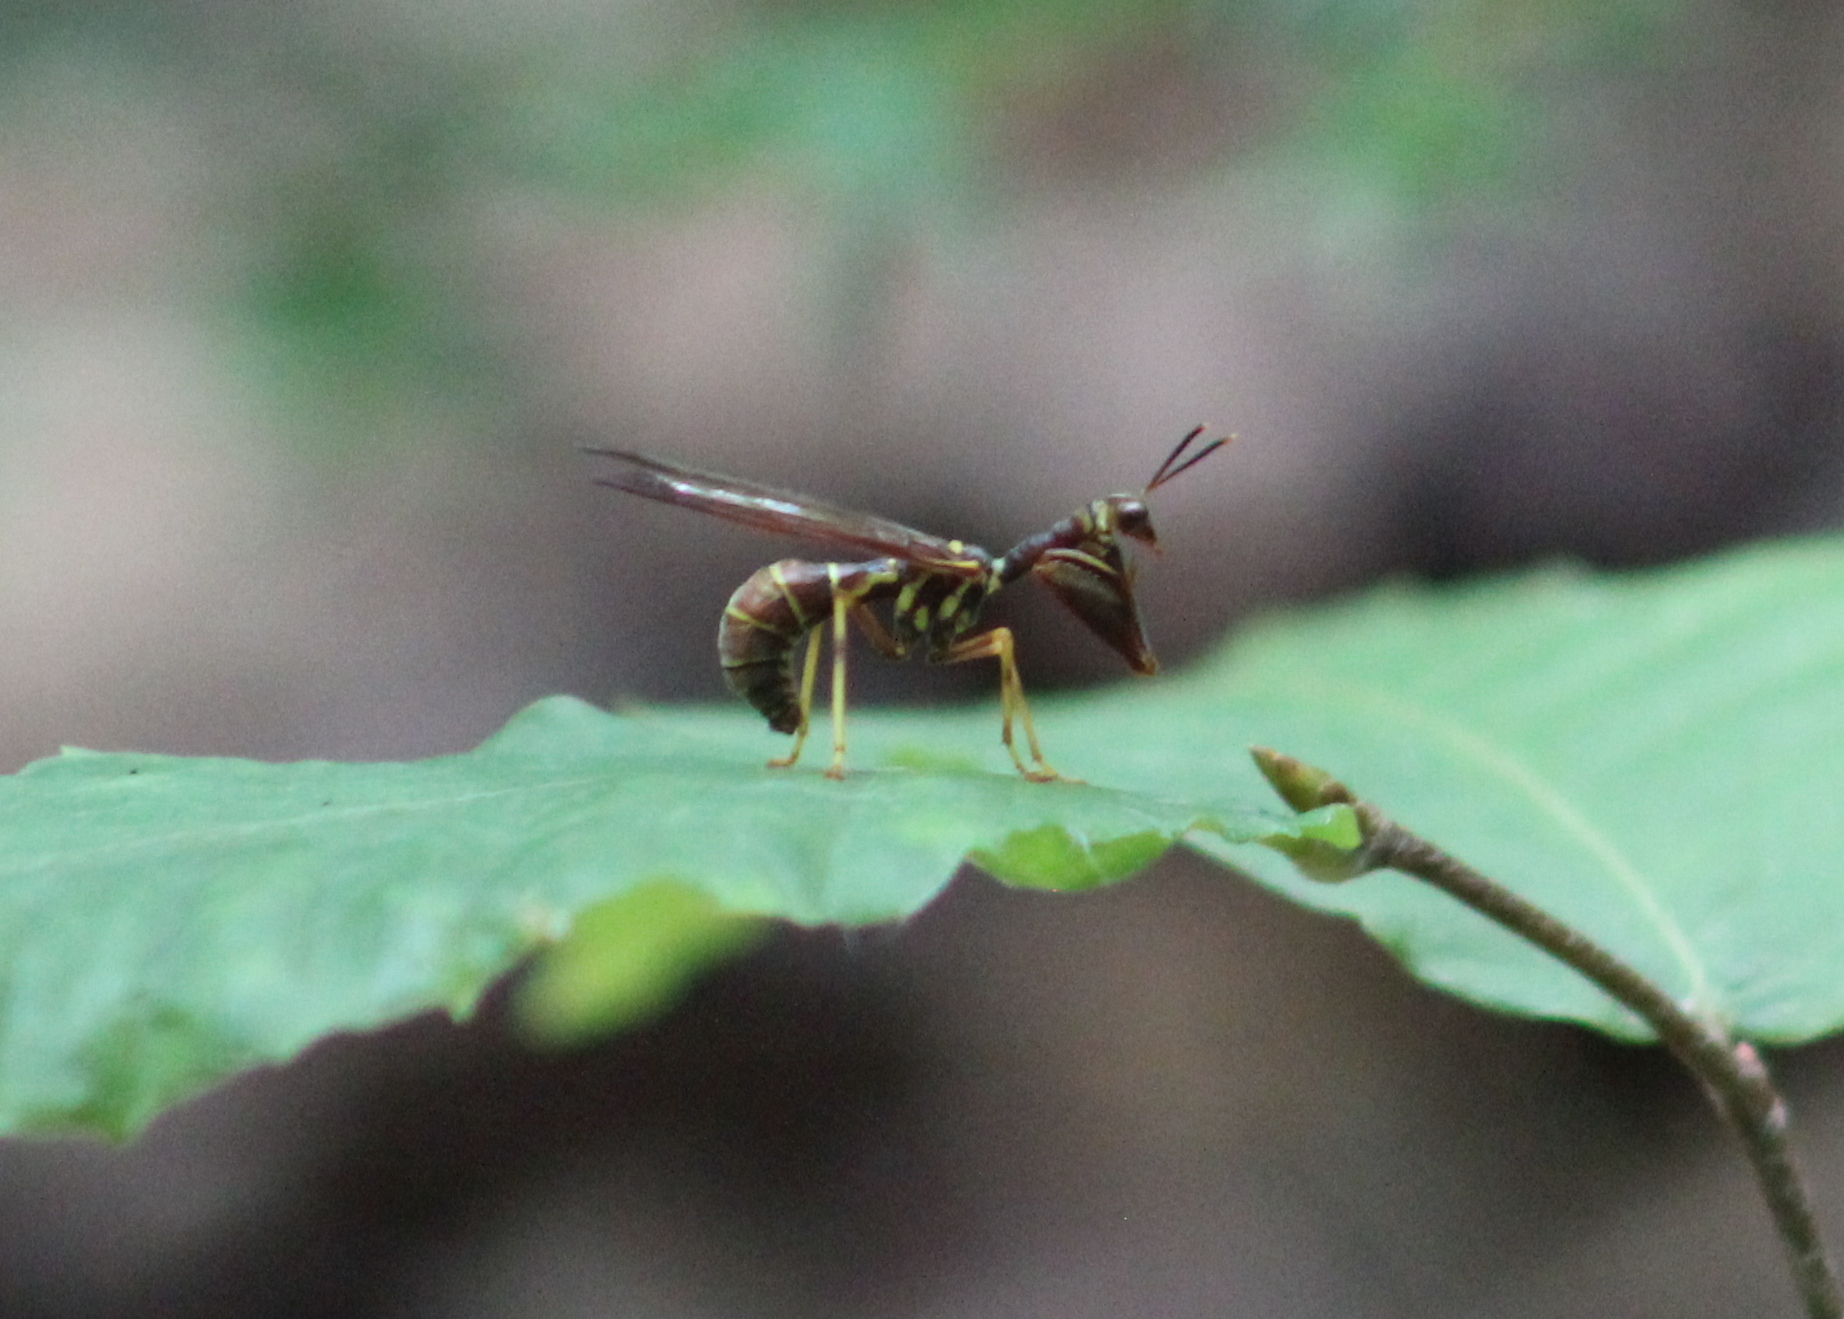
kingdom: Animalia
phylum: Arthropoda
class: Insecta
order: Neuroptera
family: Mantispidae
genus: Climaciella
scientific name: Climaciella brunnea
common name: Brown wasp mantidfly
